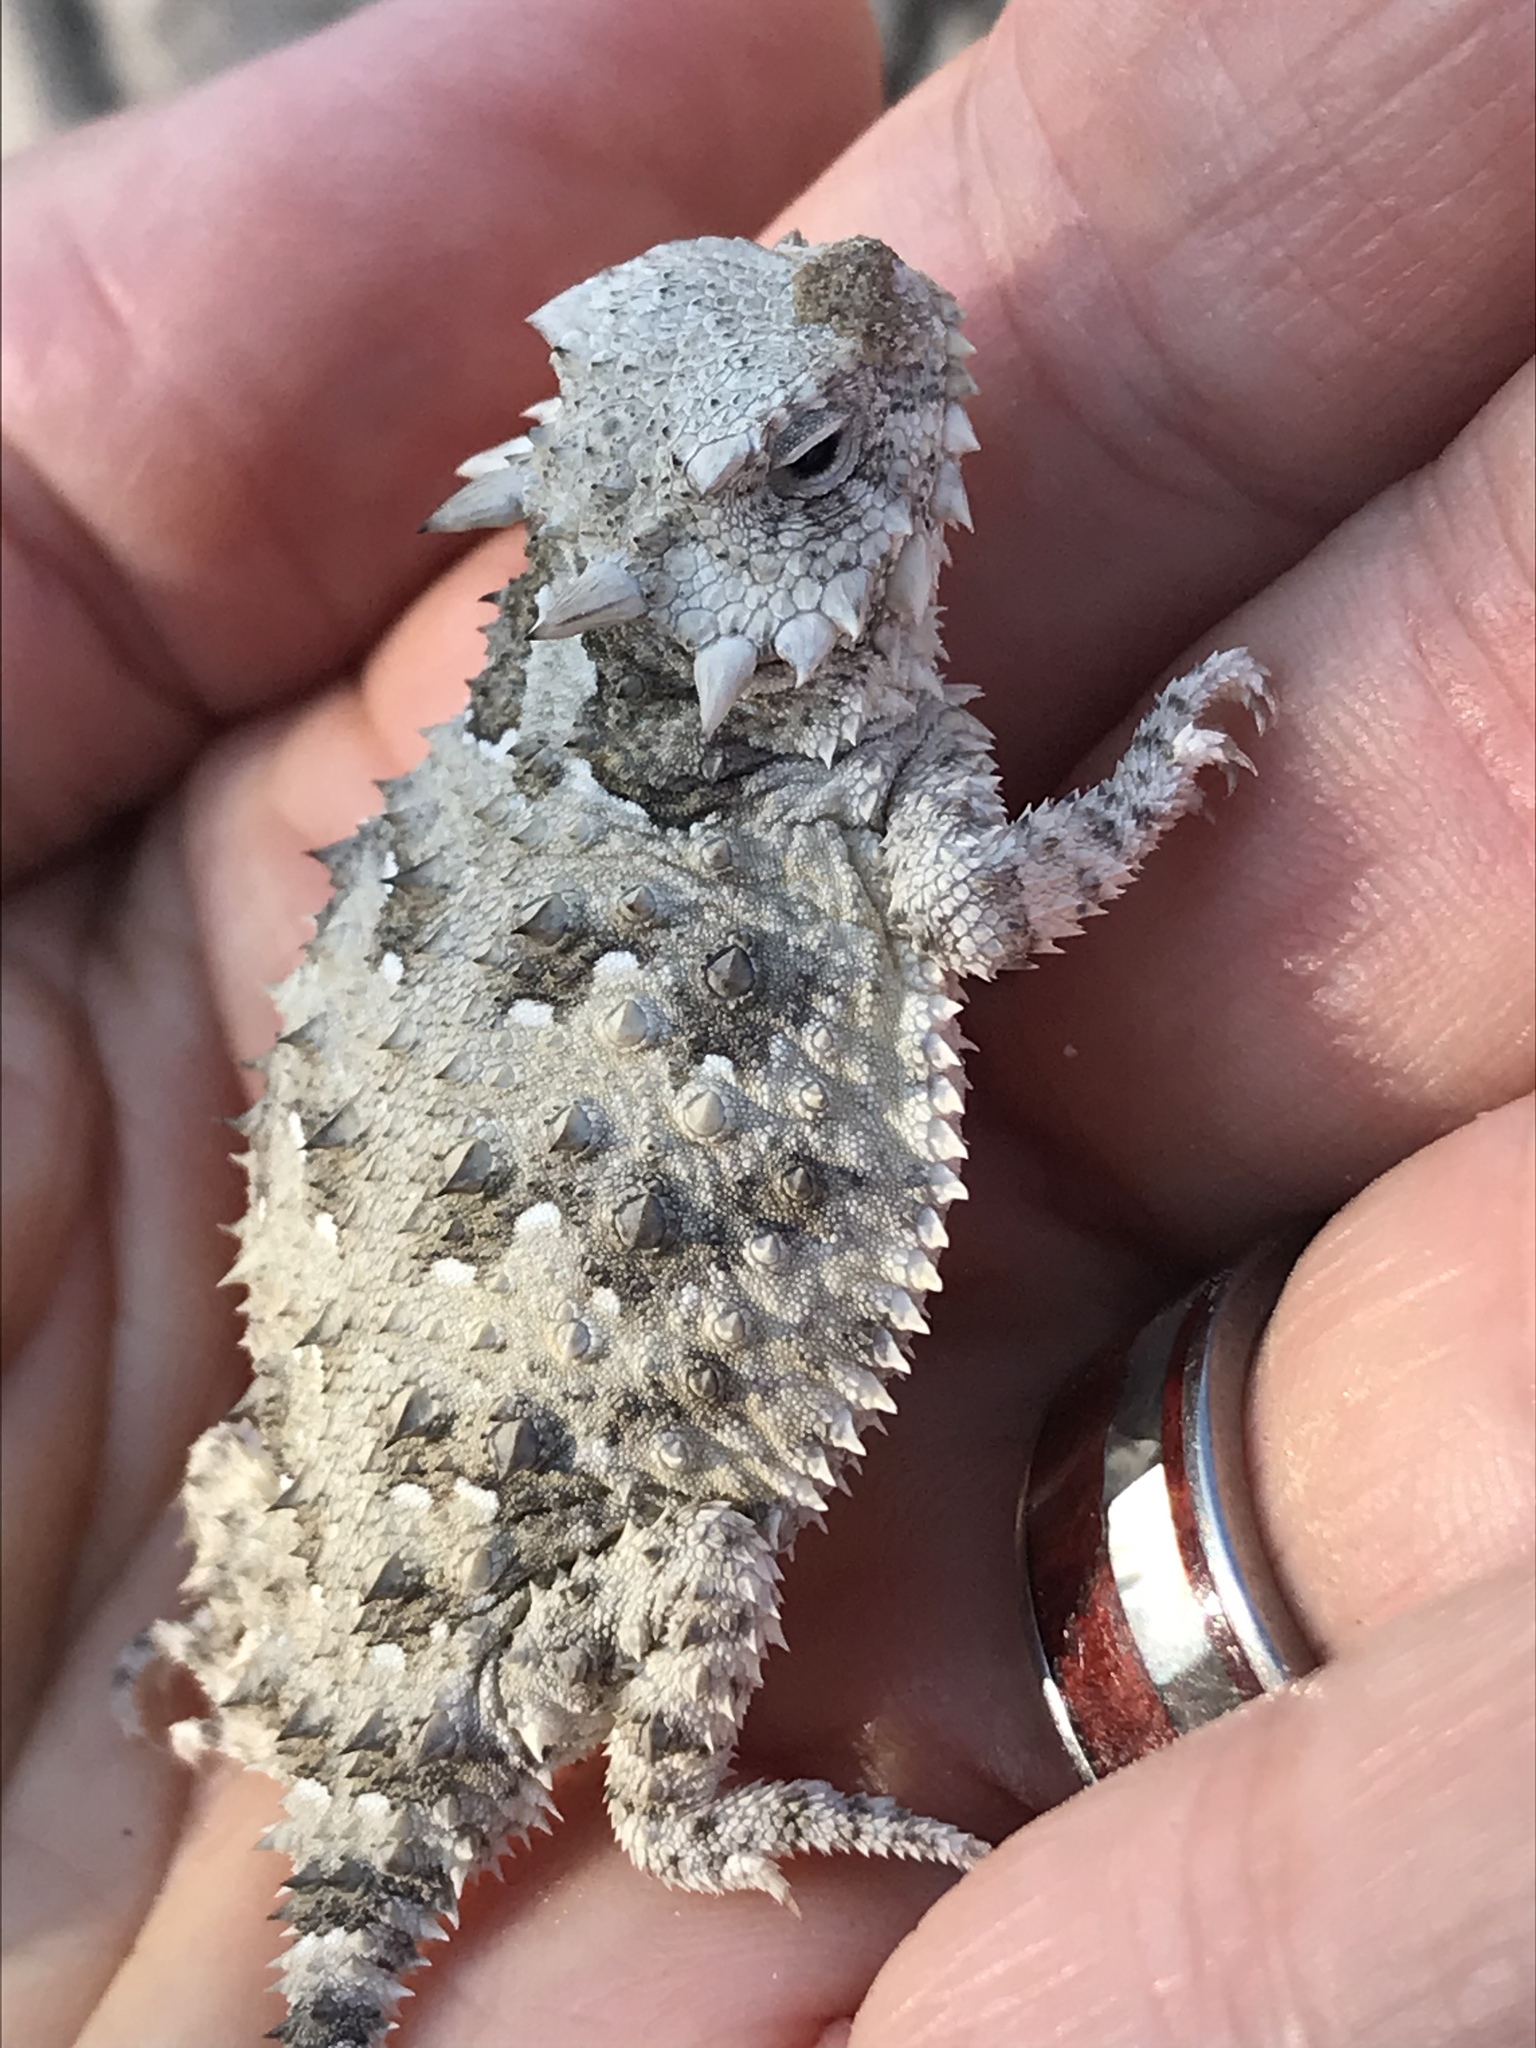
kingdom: Animalia
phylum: Chordata
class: Squamata
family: Phrynosomatidae
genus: Phrynosoma
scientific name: Phrynosoma blainvillii
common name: San diego horned lizard
